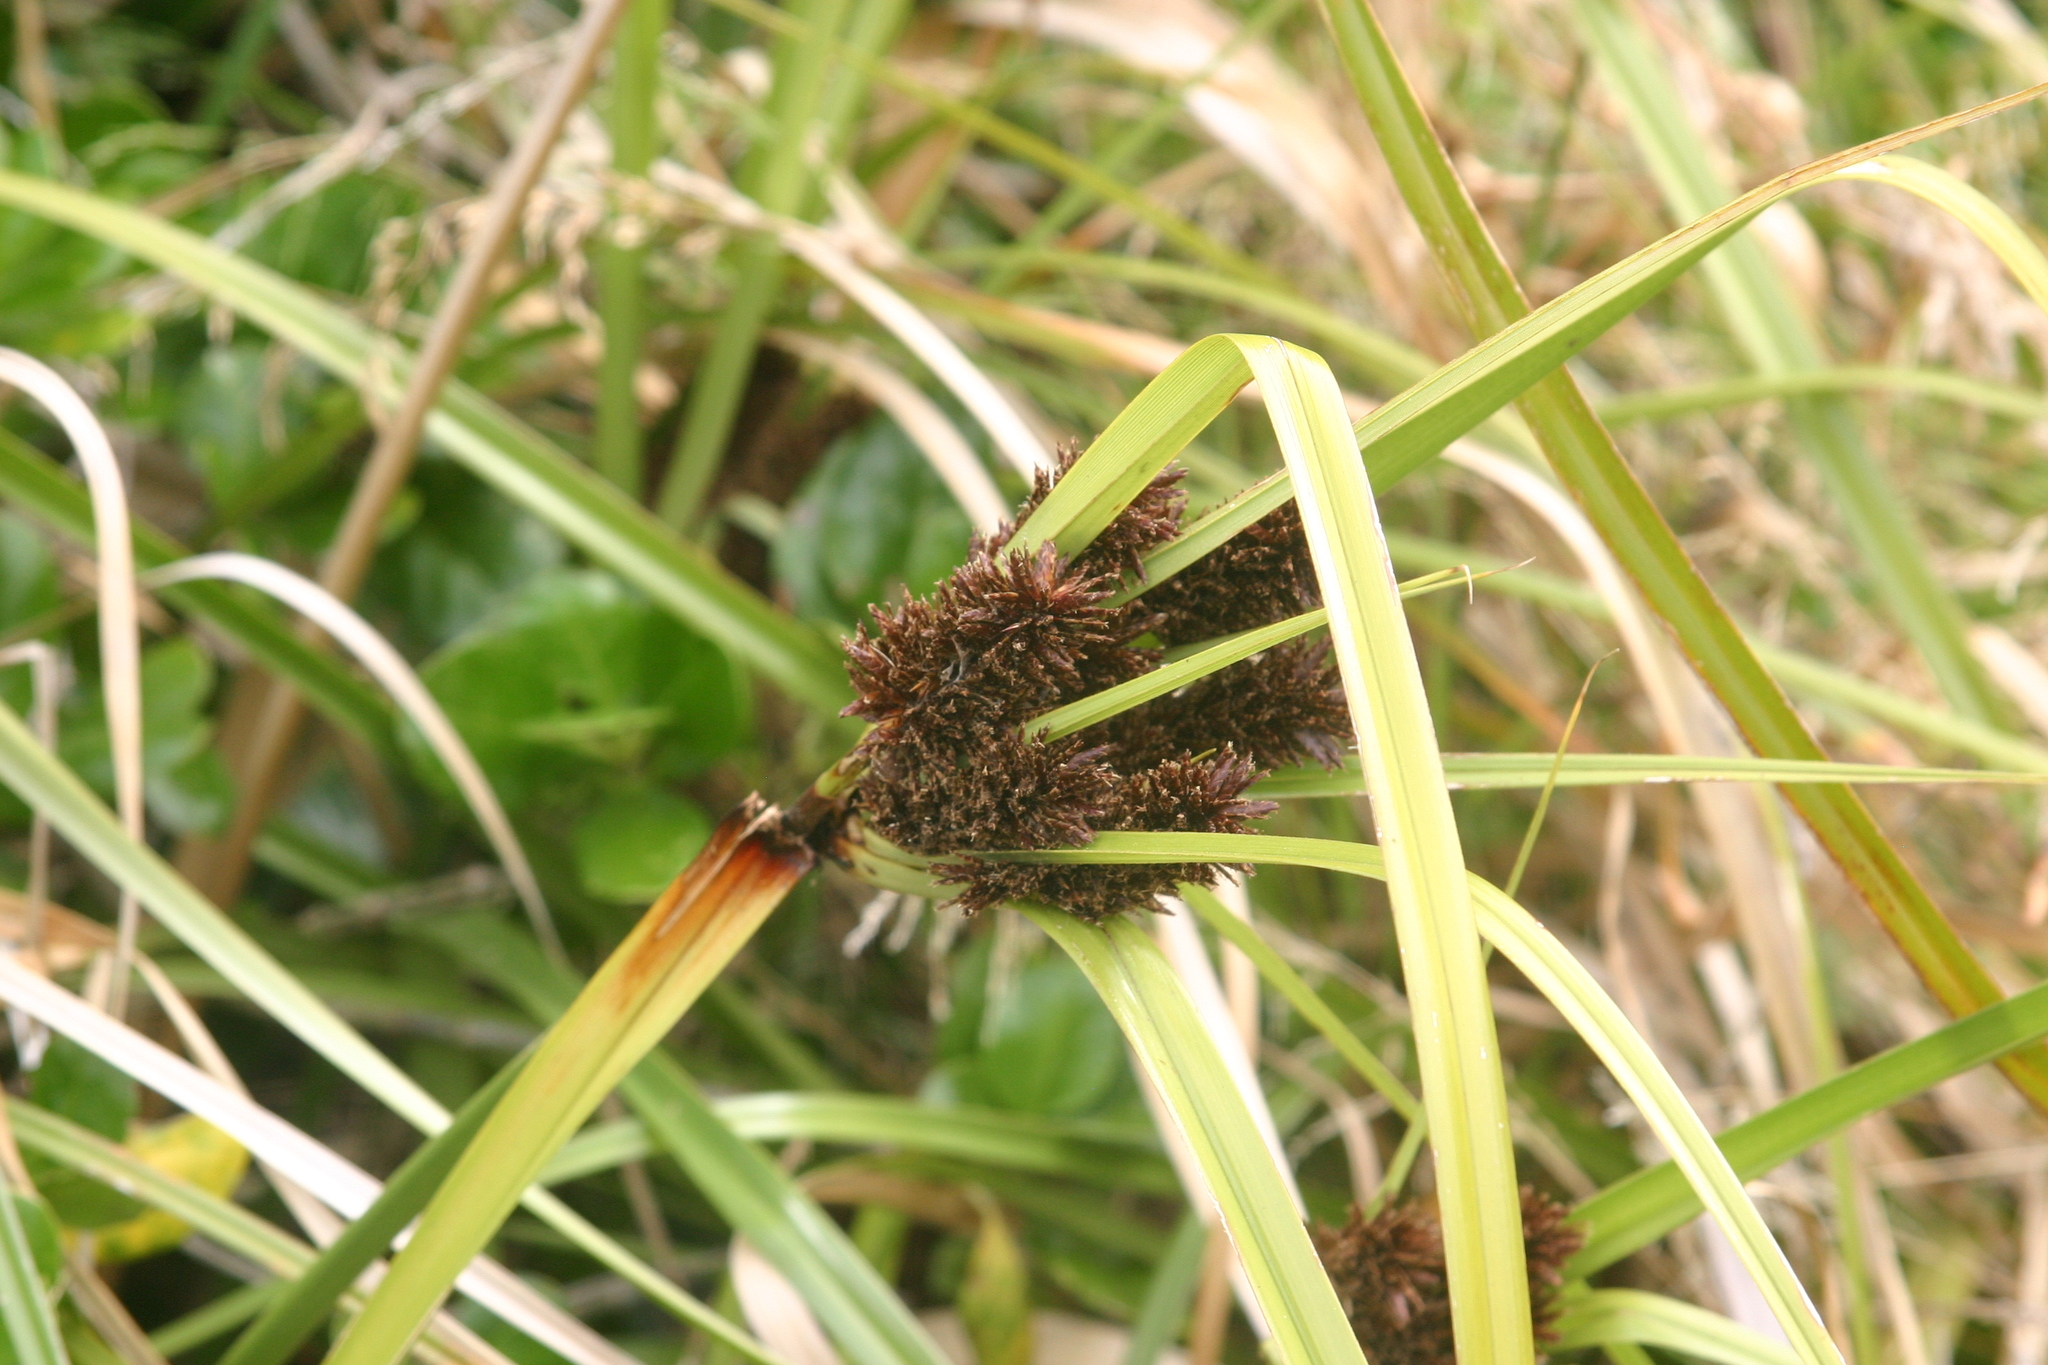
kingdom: Plantae
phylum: Tracheophyta
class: Liliopsida
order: Poales
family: Cyperaceae
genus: Cyperus
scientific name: Cyperus ustulatus
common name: Giant umbrella-sedge
